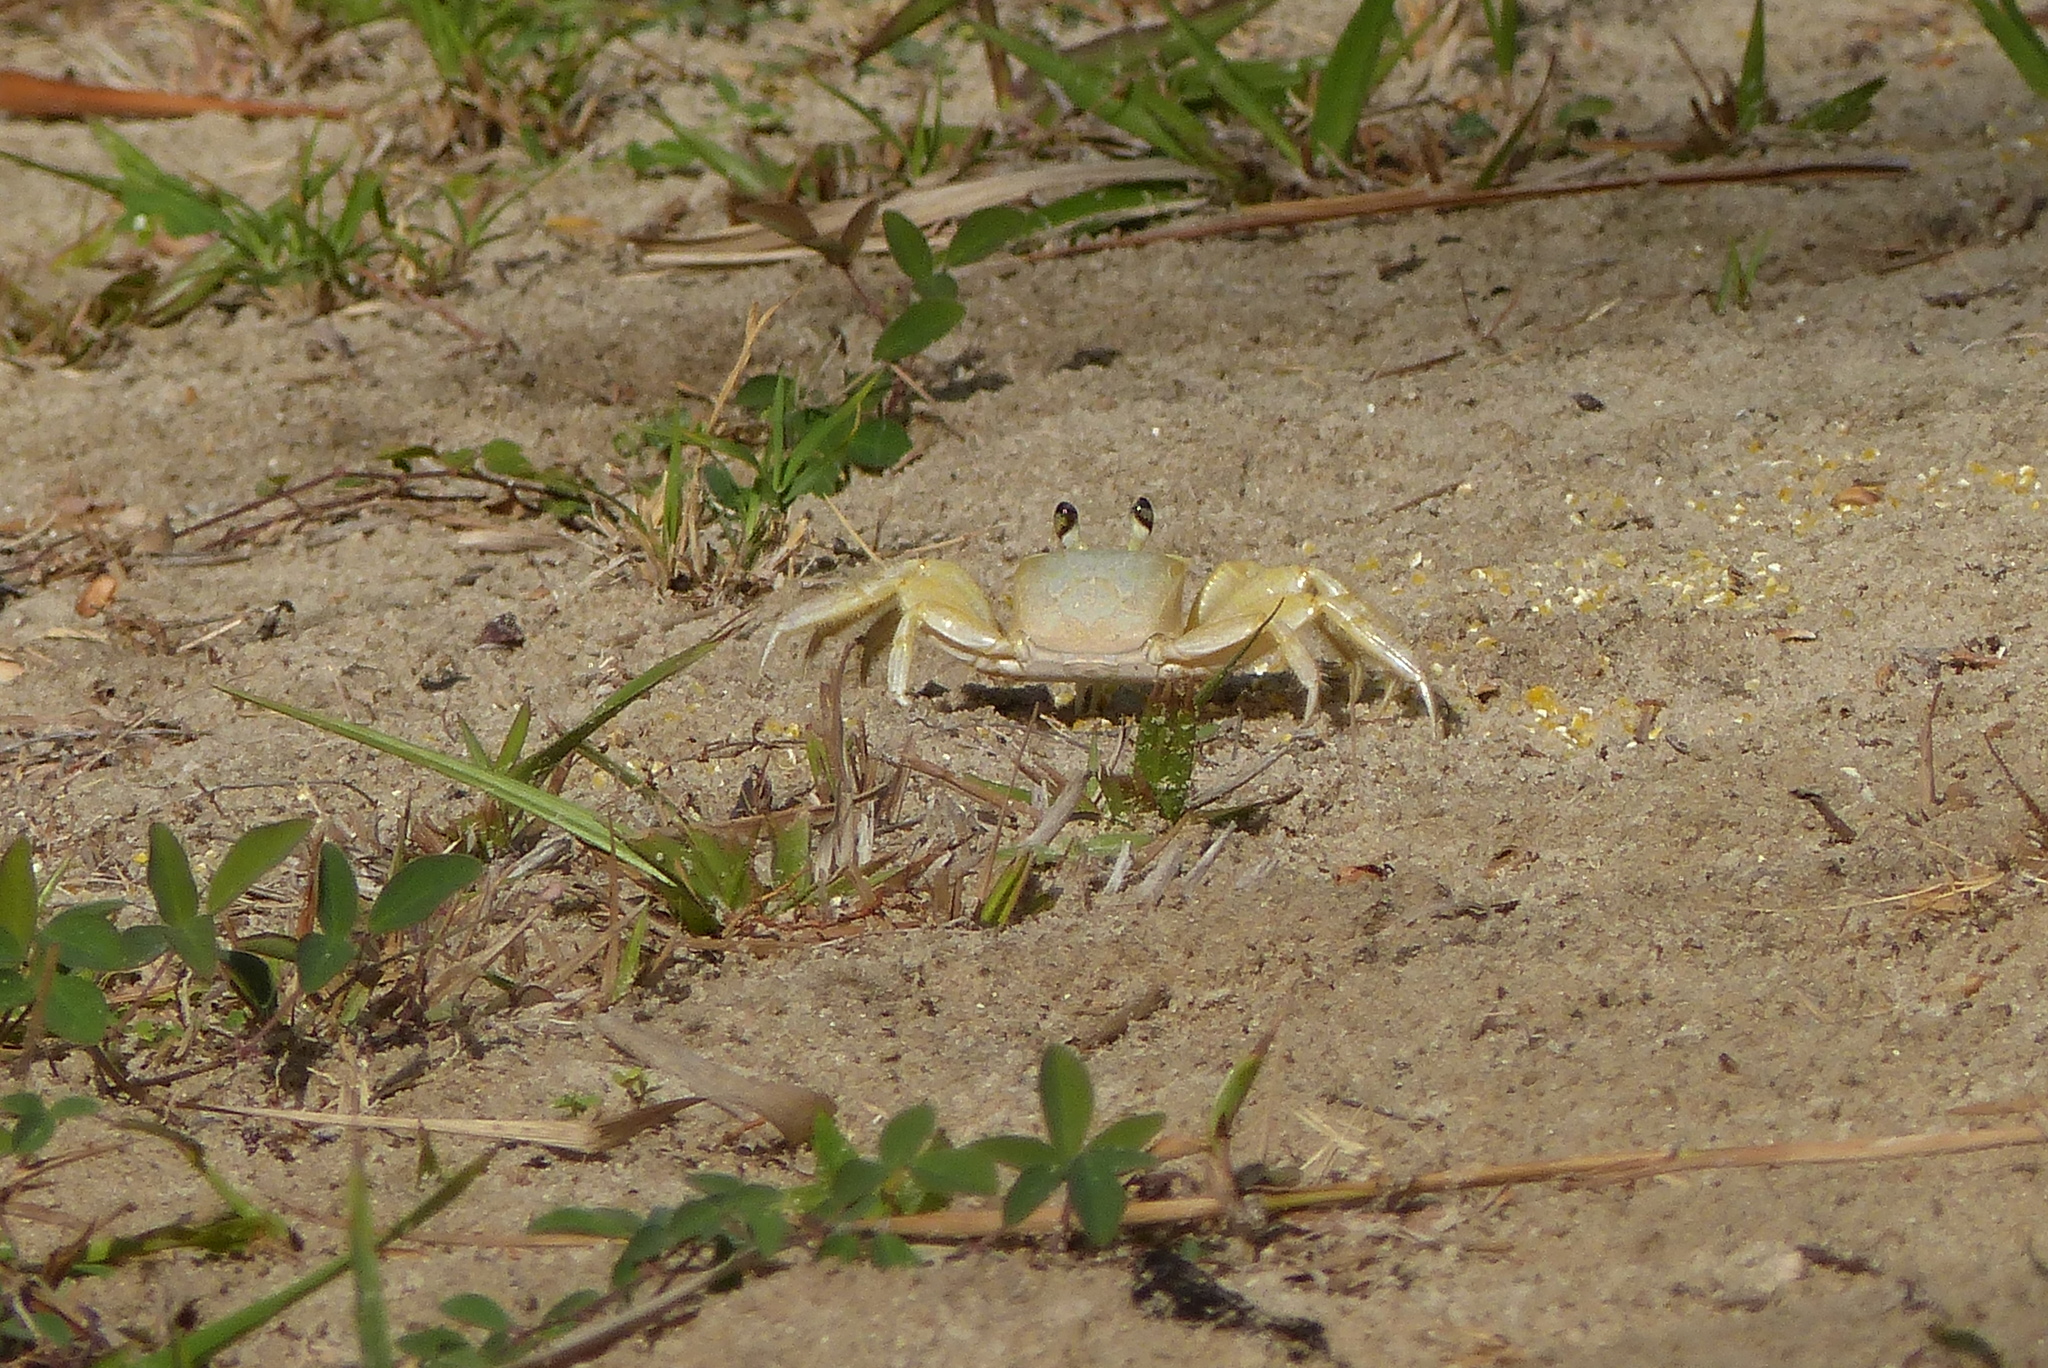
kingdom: Animalia
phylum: Arthropoda
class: Malacostraca
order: Decapoda
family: Ocypodidae
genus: Ocypode
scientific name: Ocypode quadrata
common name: Ghost crab
